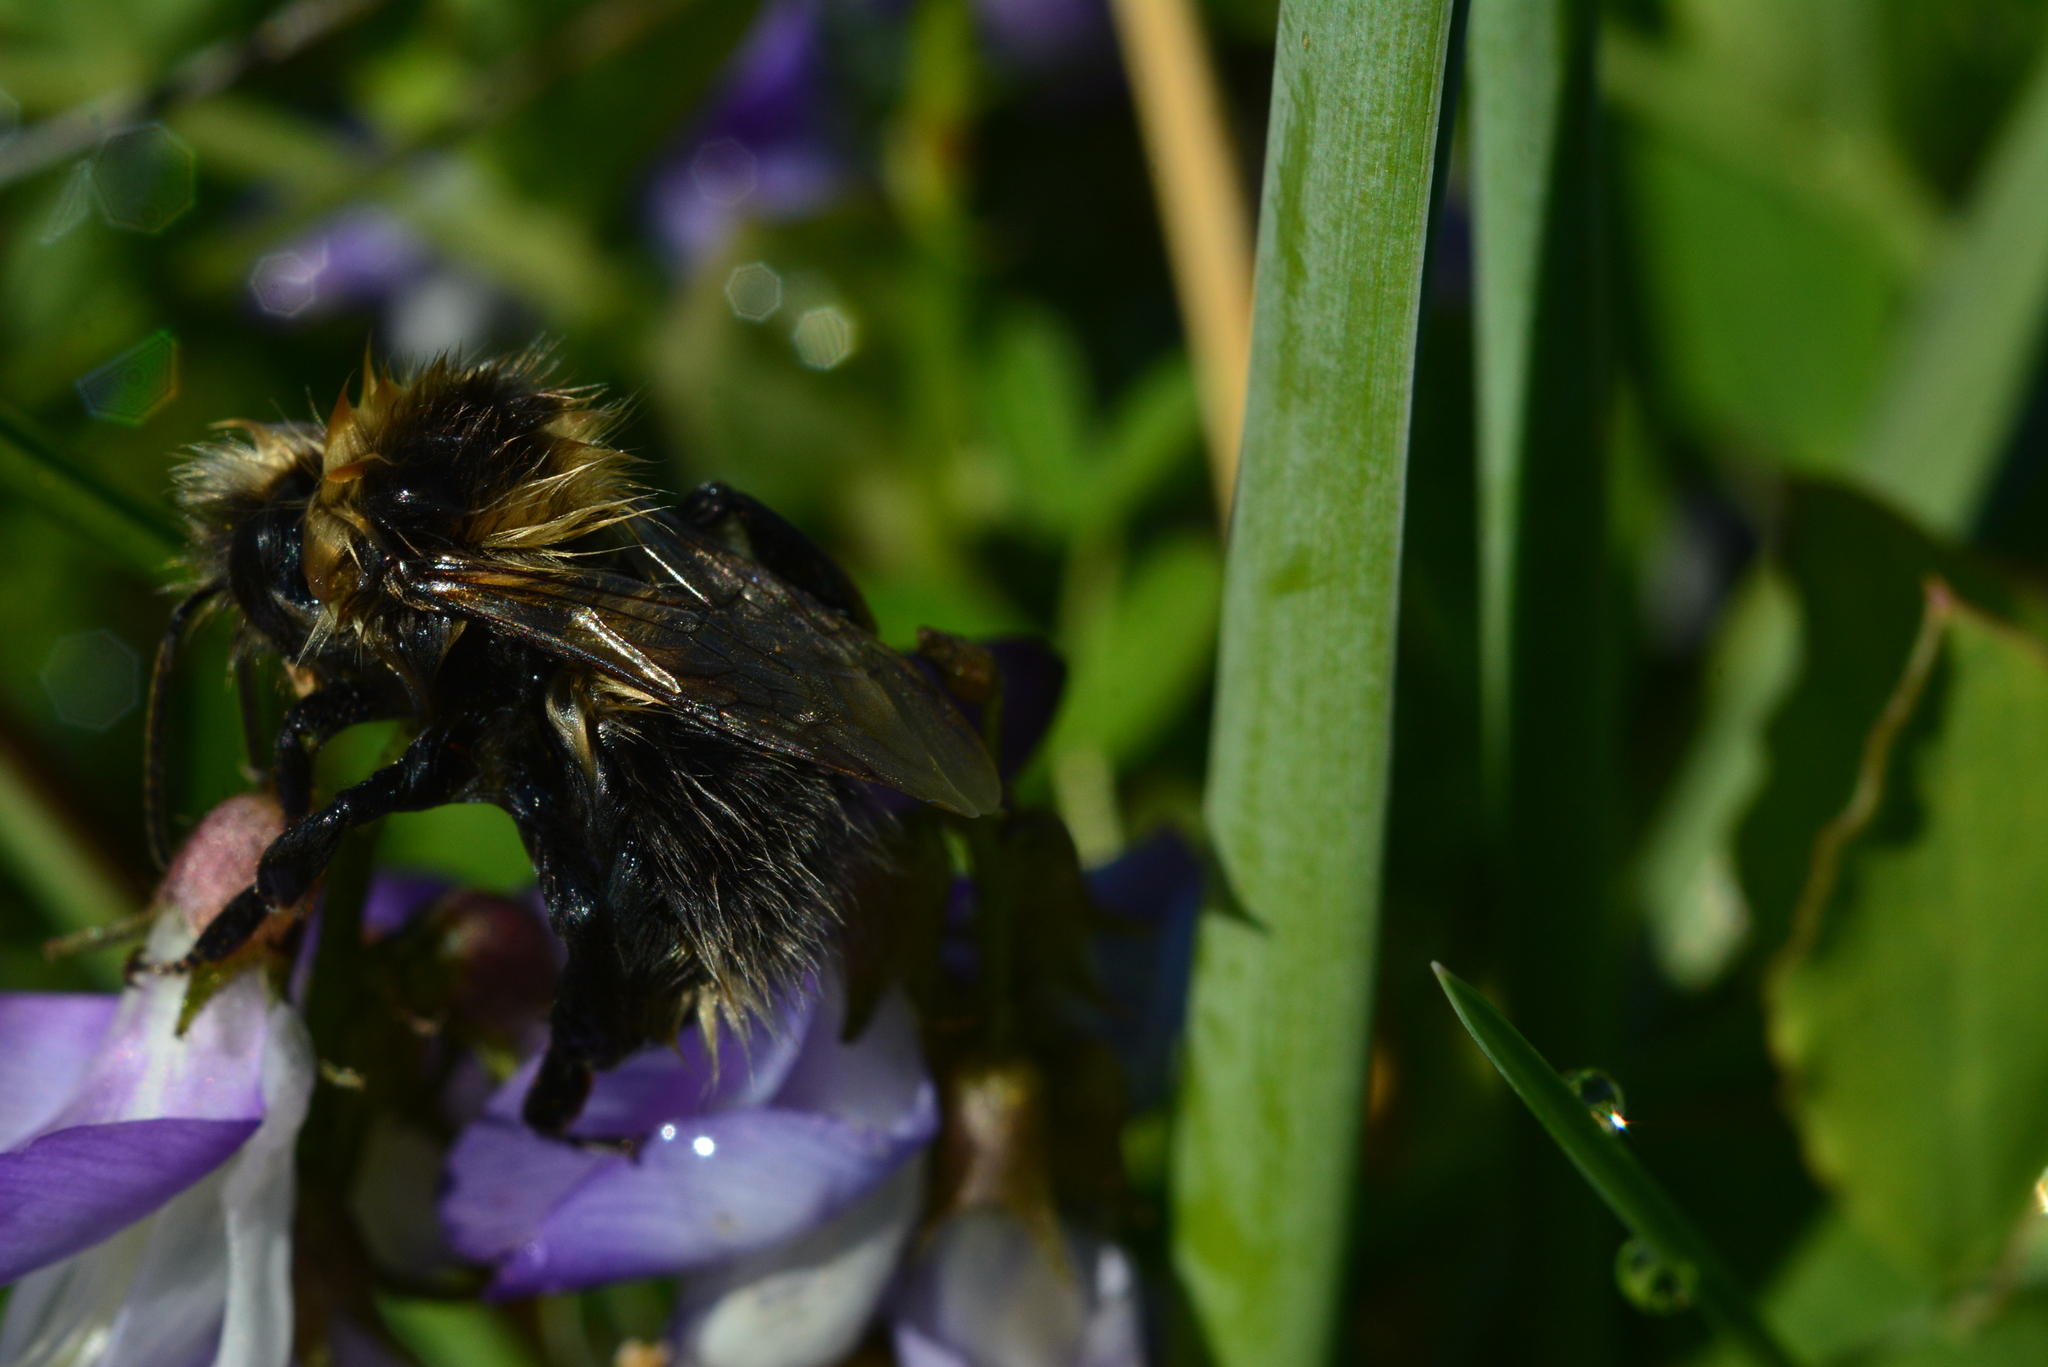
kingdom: Animalia
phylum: Arthropoda
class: Insecta
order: Hymenoptera
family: Apidae
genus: Bombus
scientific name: Bombus
